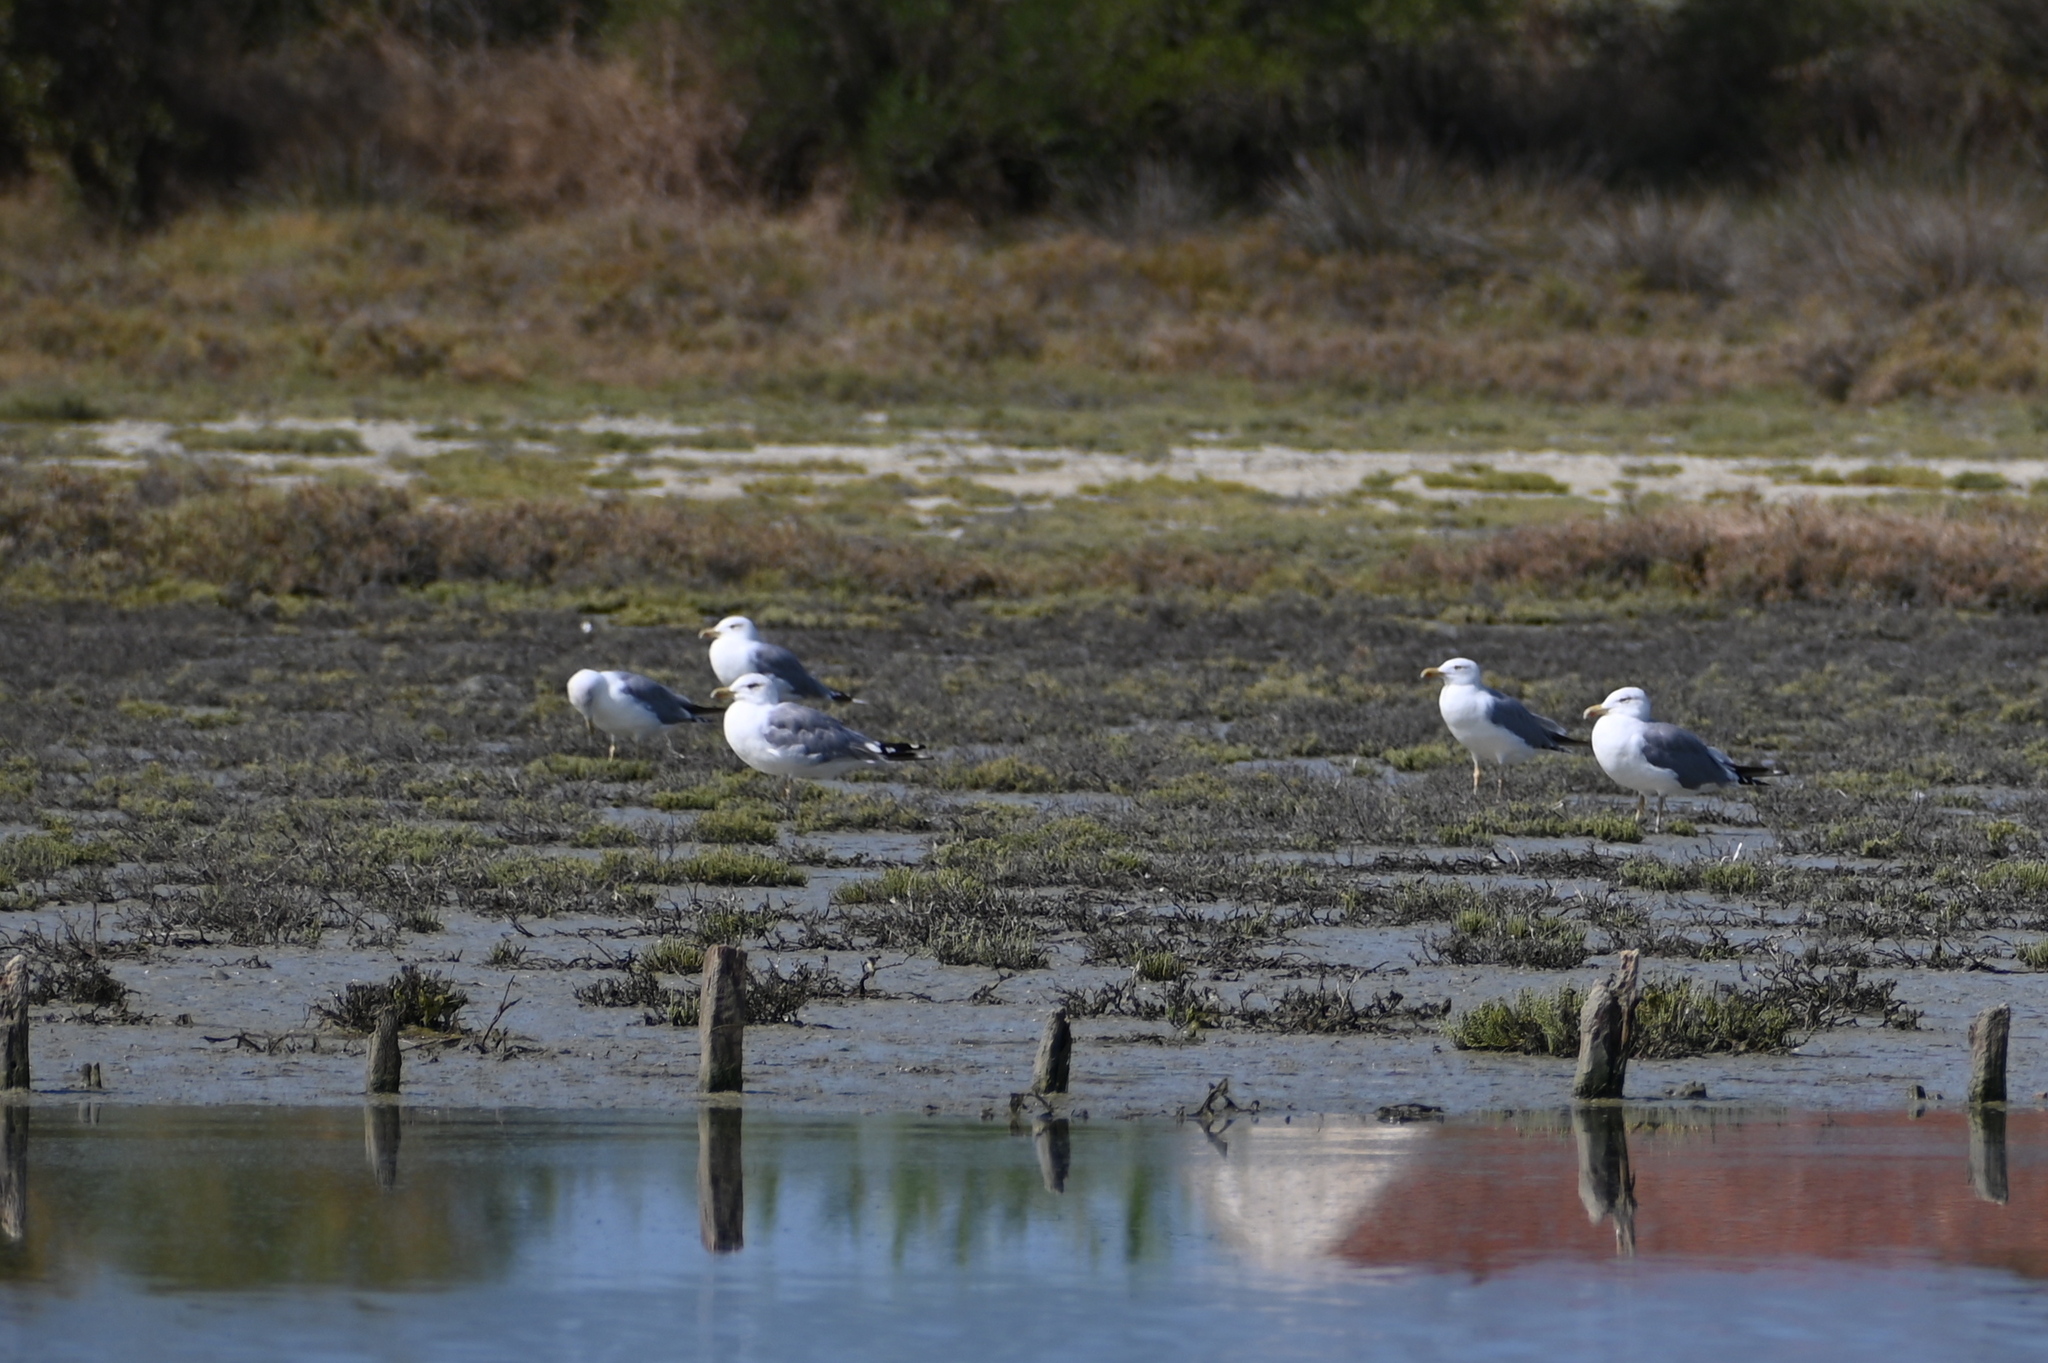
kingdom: Animalia
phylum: Chordata
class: Aves
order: Charadriiformes
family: Laridae
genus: Larus
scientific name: Larus michahellis
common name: Yellow-legged gull
